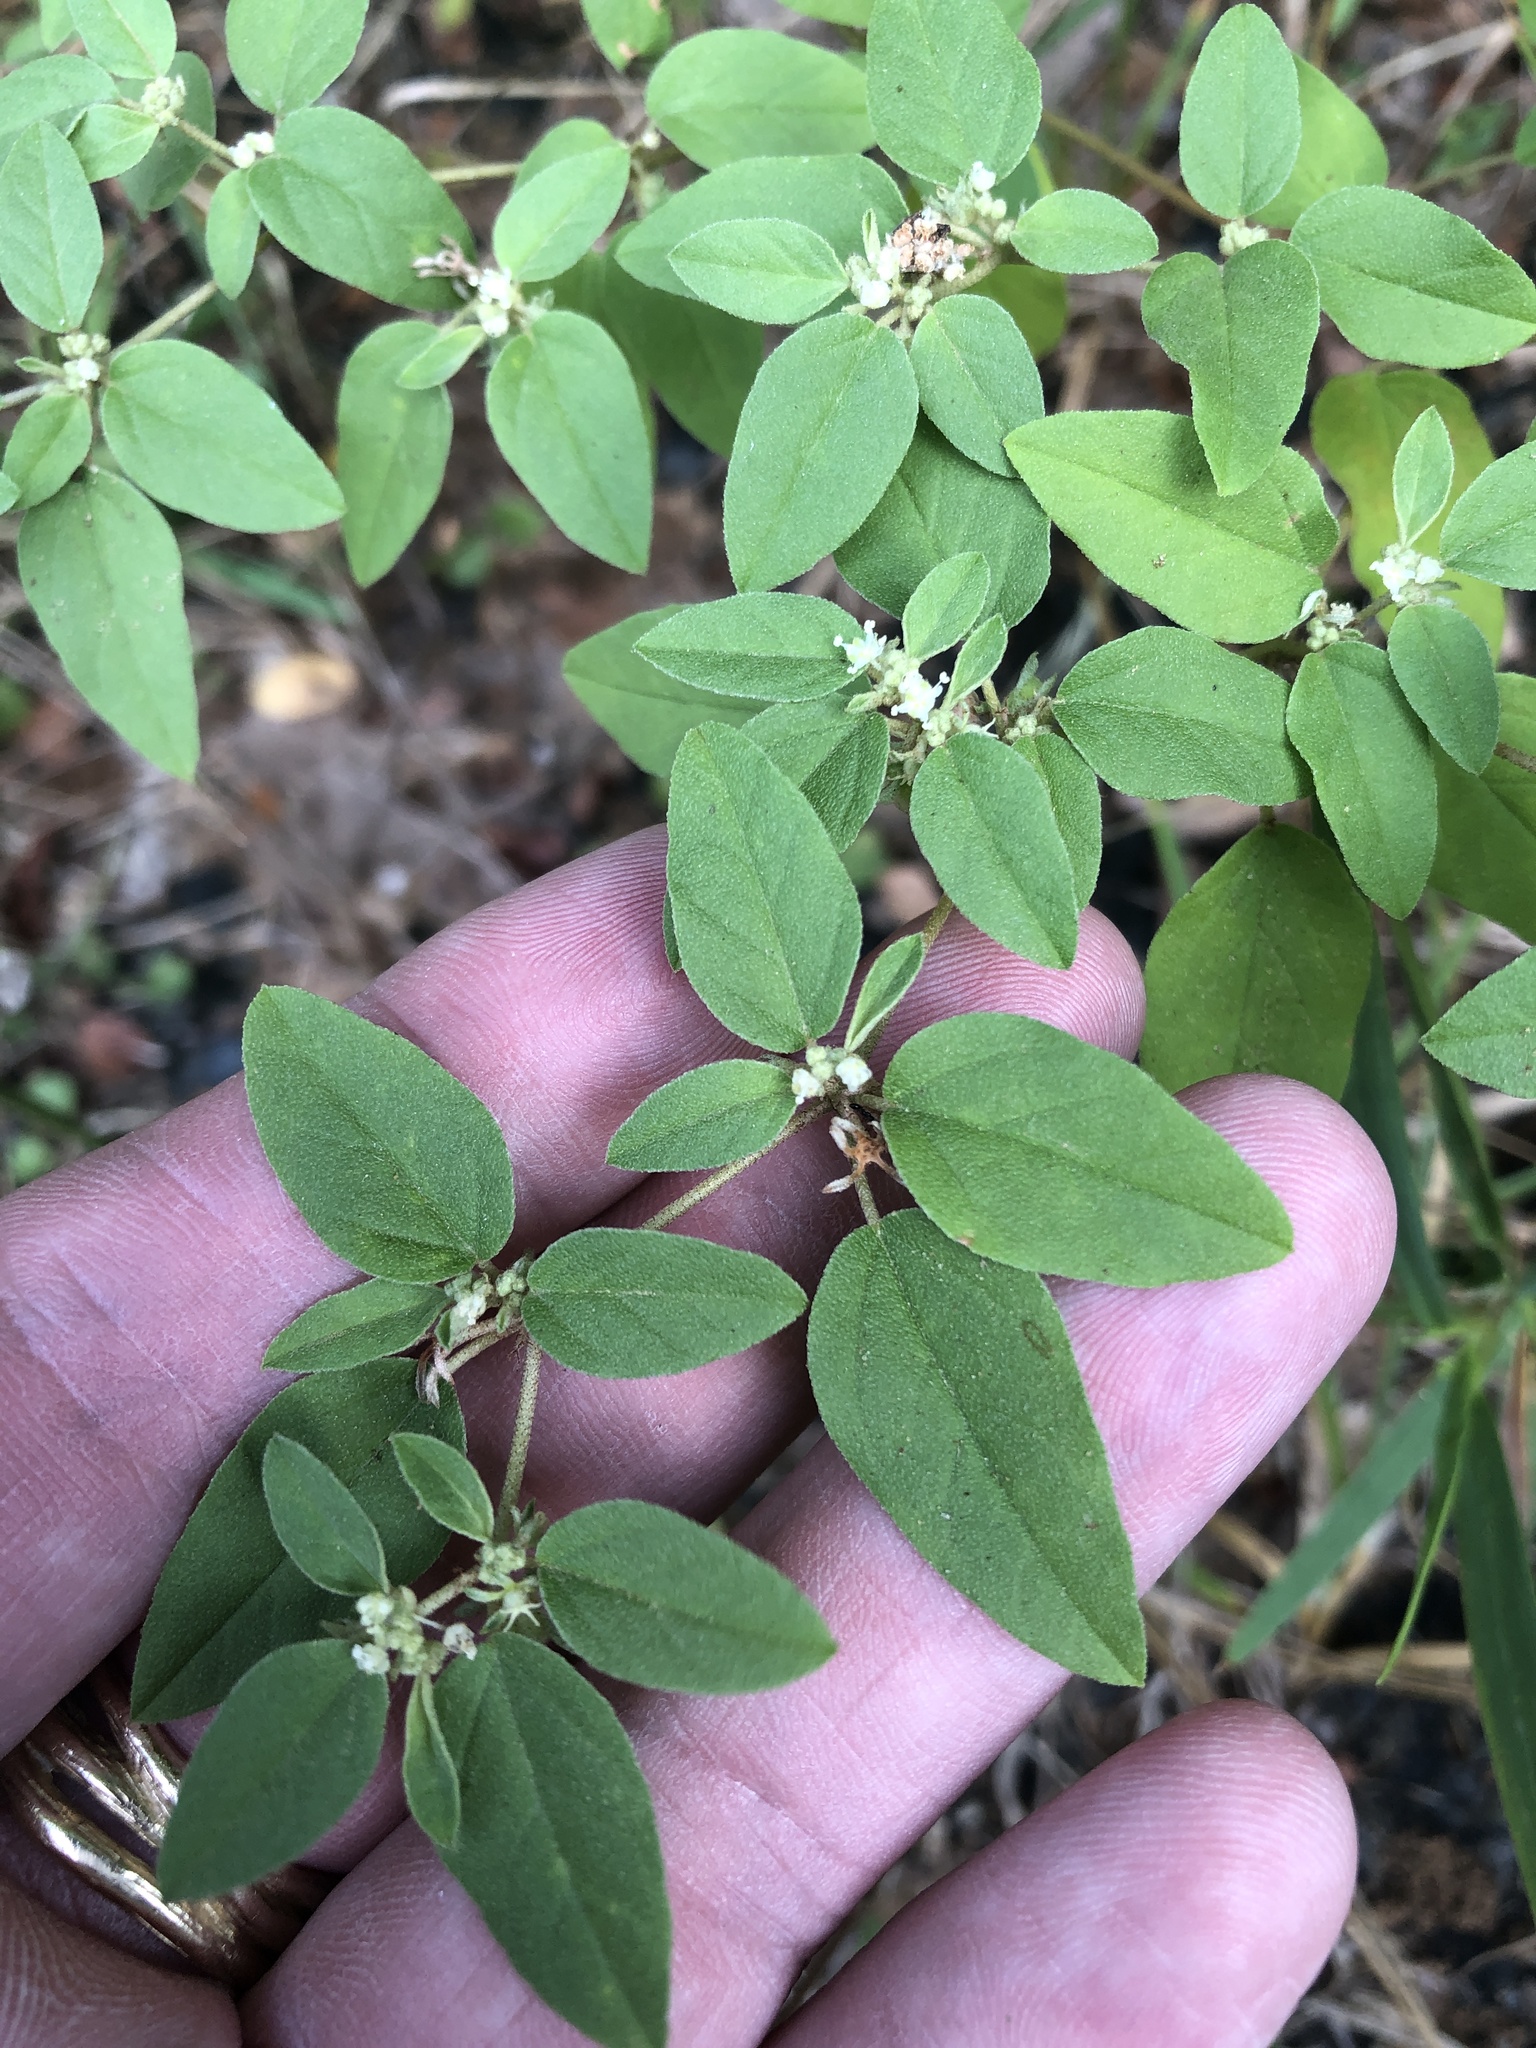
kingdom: Plantae
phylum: Tracheophyta
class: Magnoliopsida
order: Malpighiales
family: Euphorbiaceae
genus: Croton
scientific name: Croton monanthogynus
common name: One-seed croton
